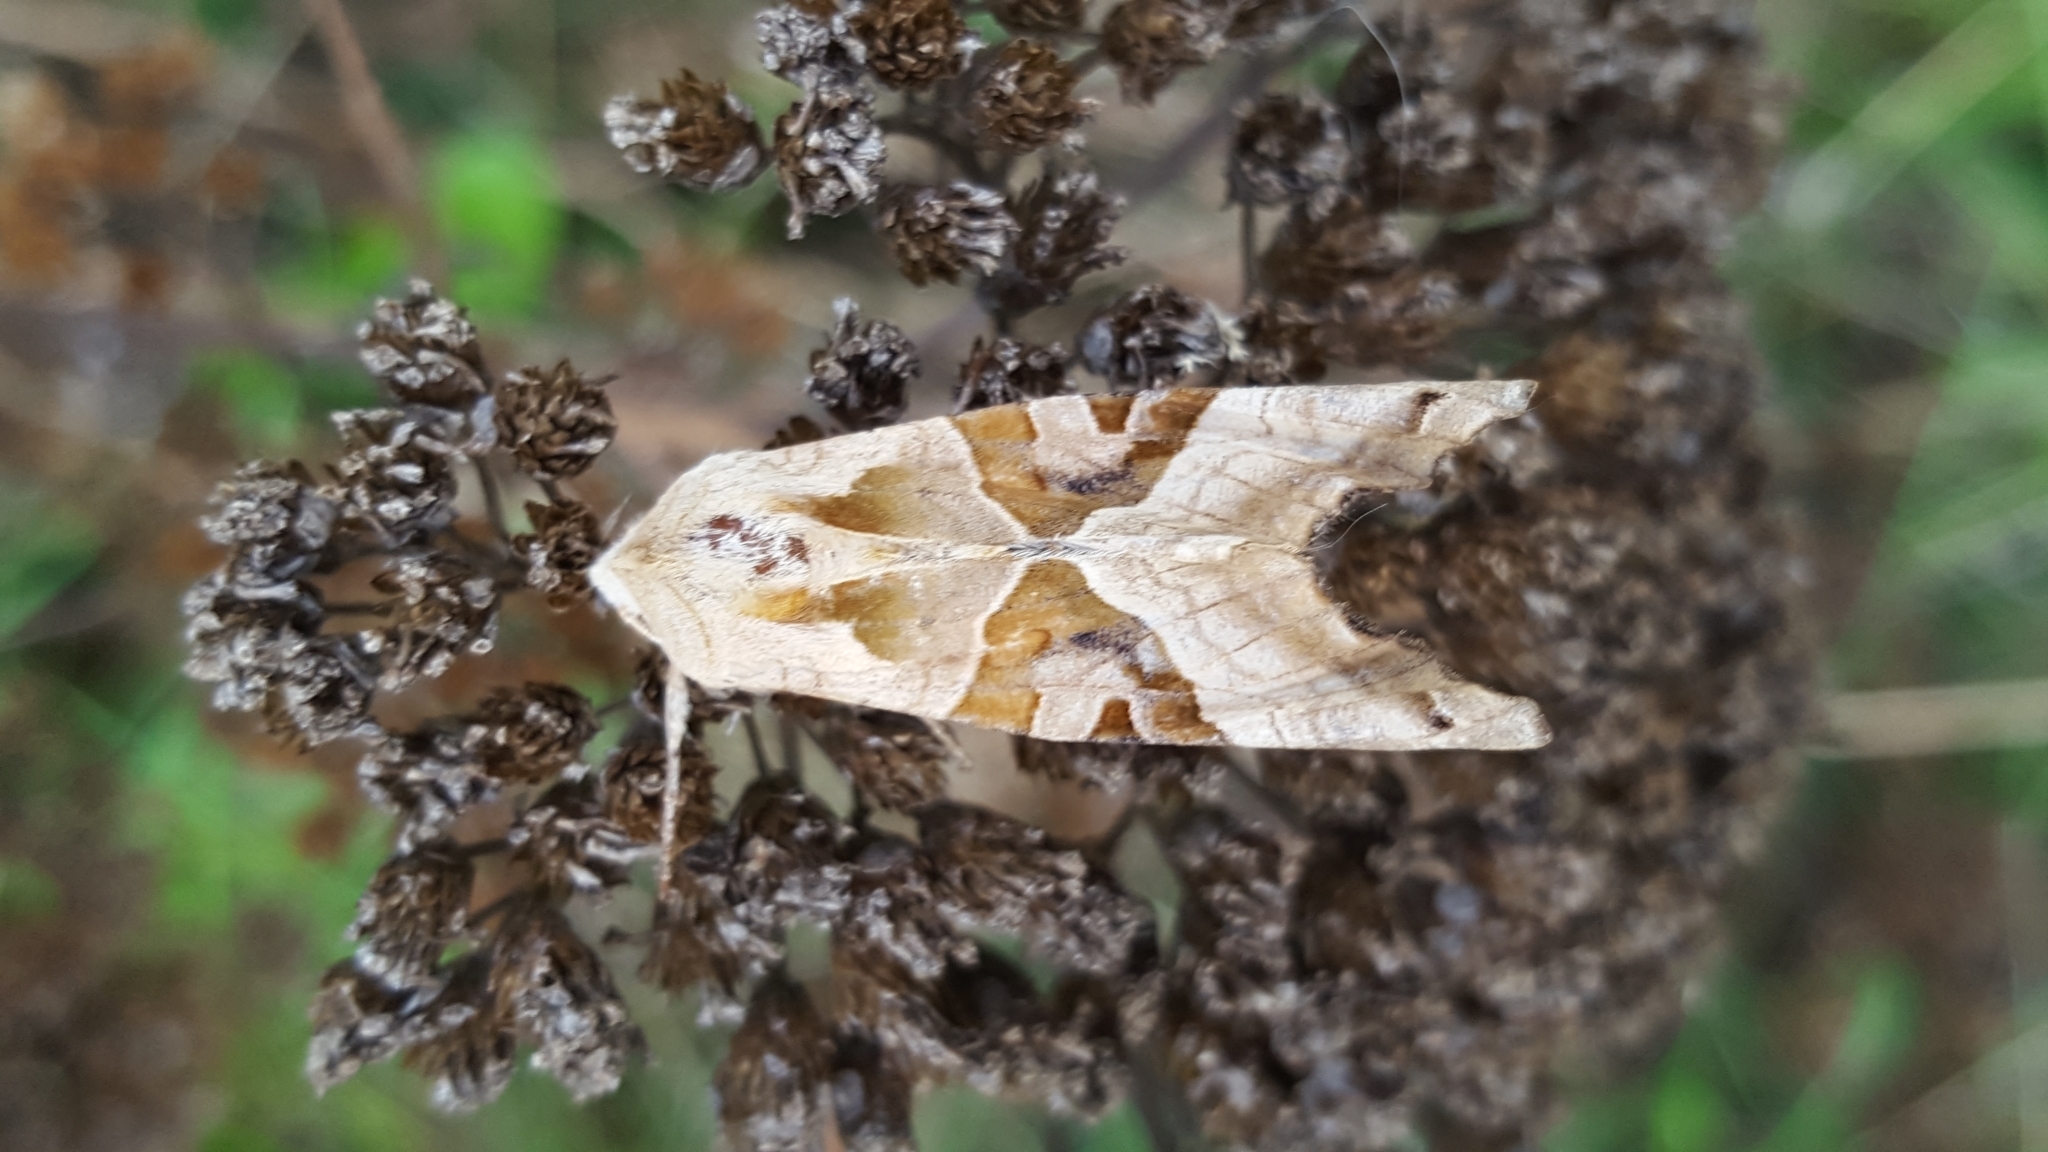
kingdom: Animalia
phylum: Arthropoda
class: Insecta
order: Lepidoptera
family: Noctuidae
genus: Phlogophora
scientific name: Phlogophora meticulosa
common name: Angle shades
